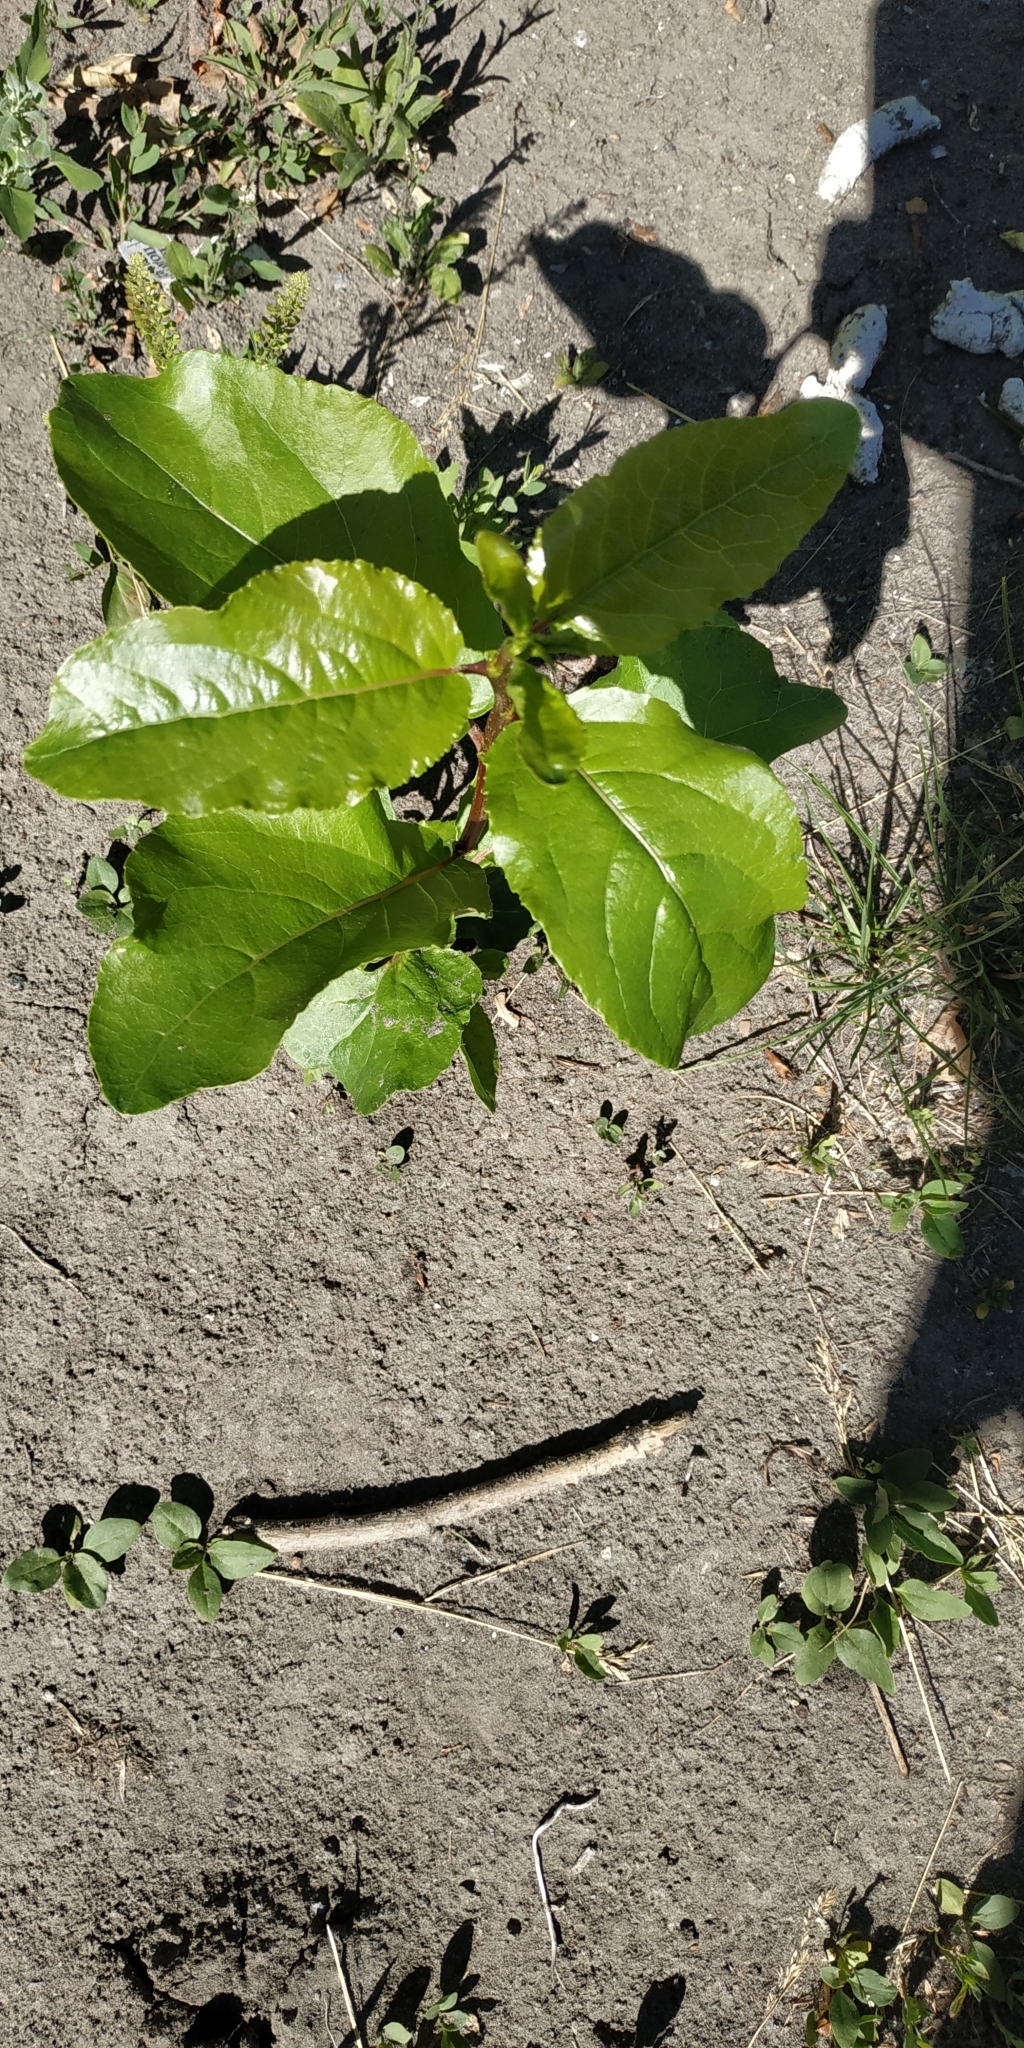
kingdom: Plantae
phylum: Tracheophyta
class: Magnoliopsida
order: Malpighiales
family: Salicaceae
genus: Populus
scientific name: Populus sibirica
